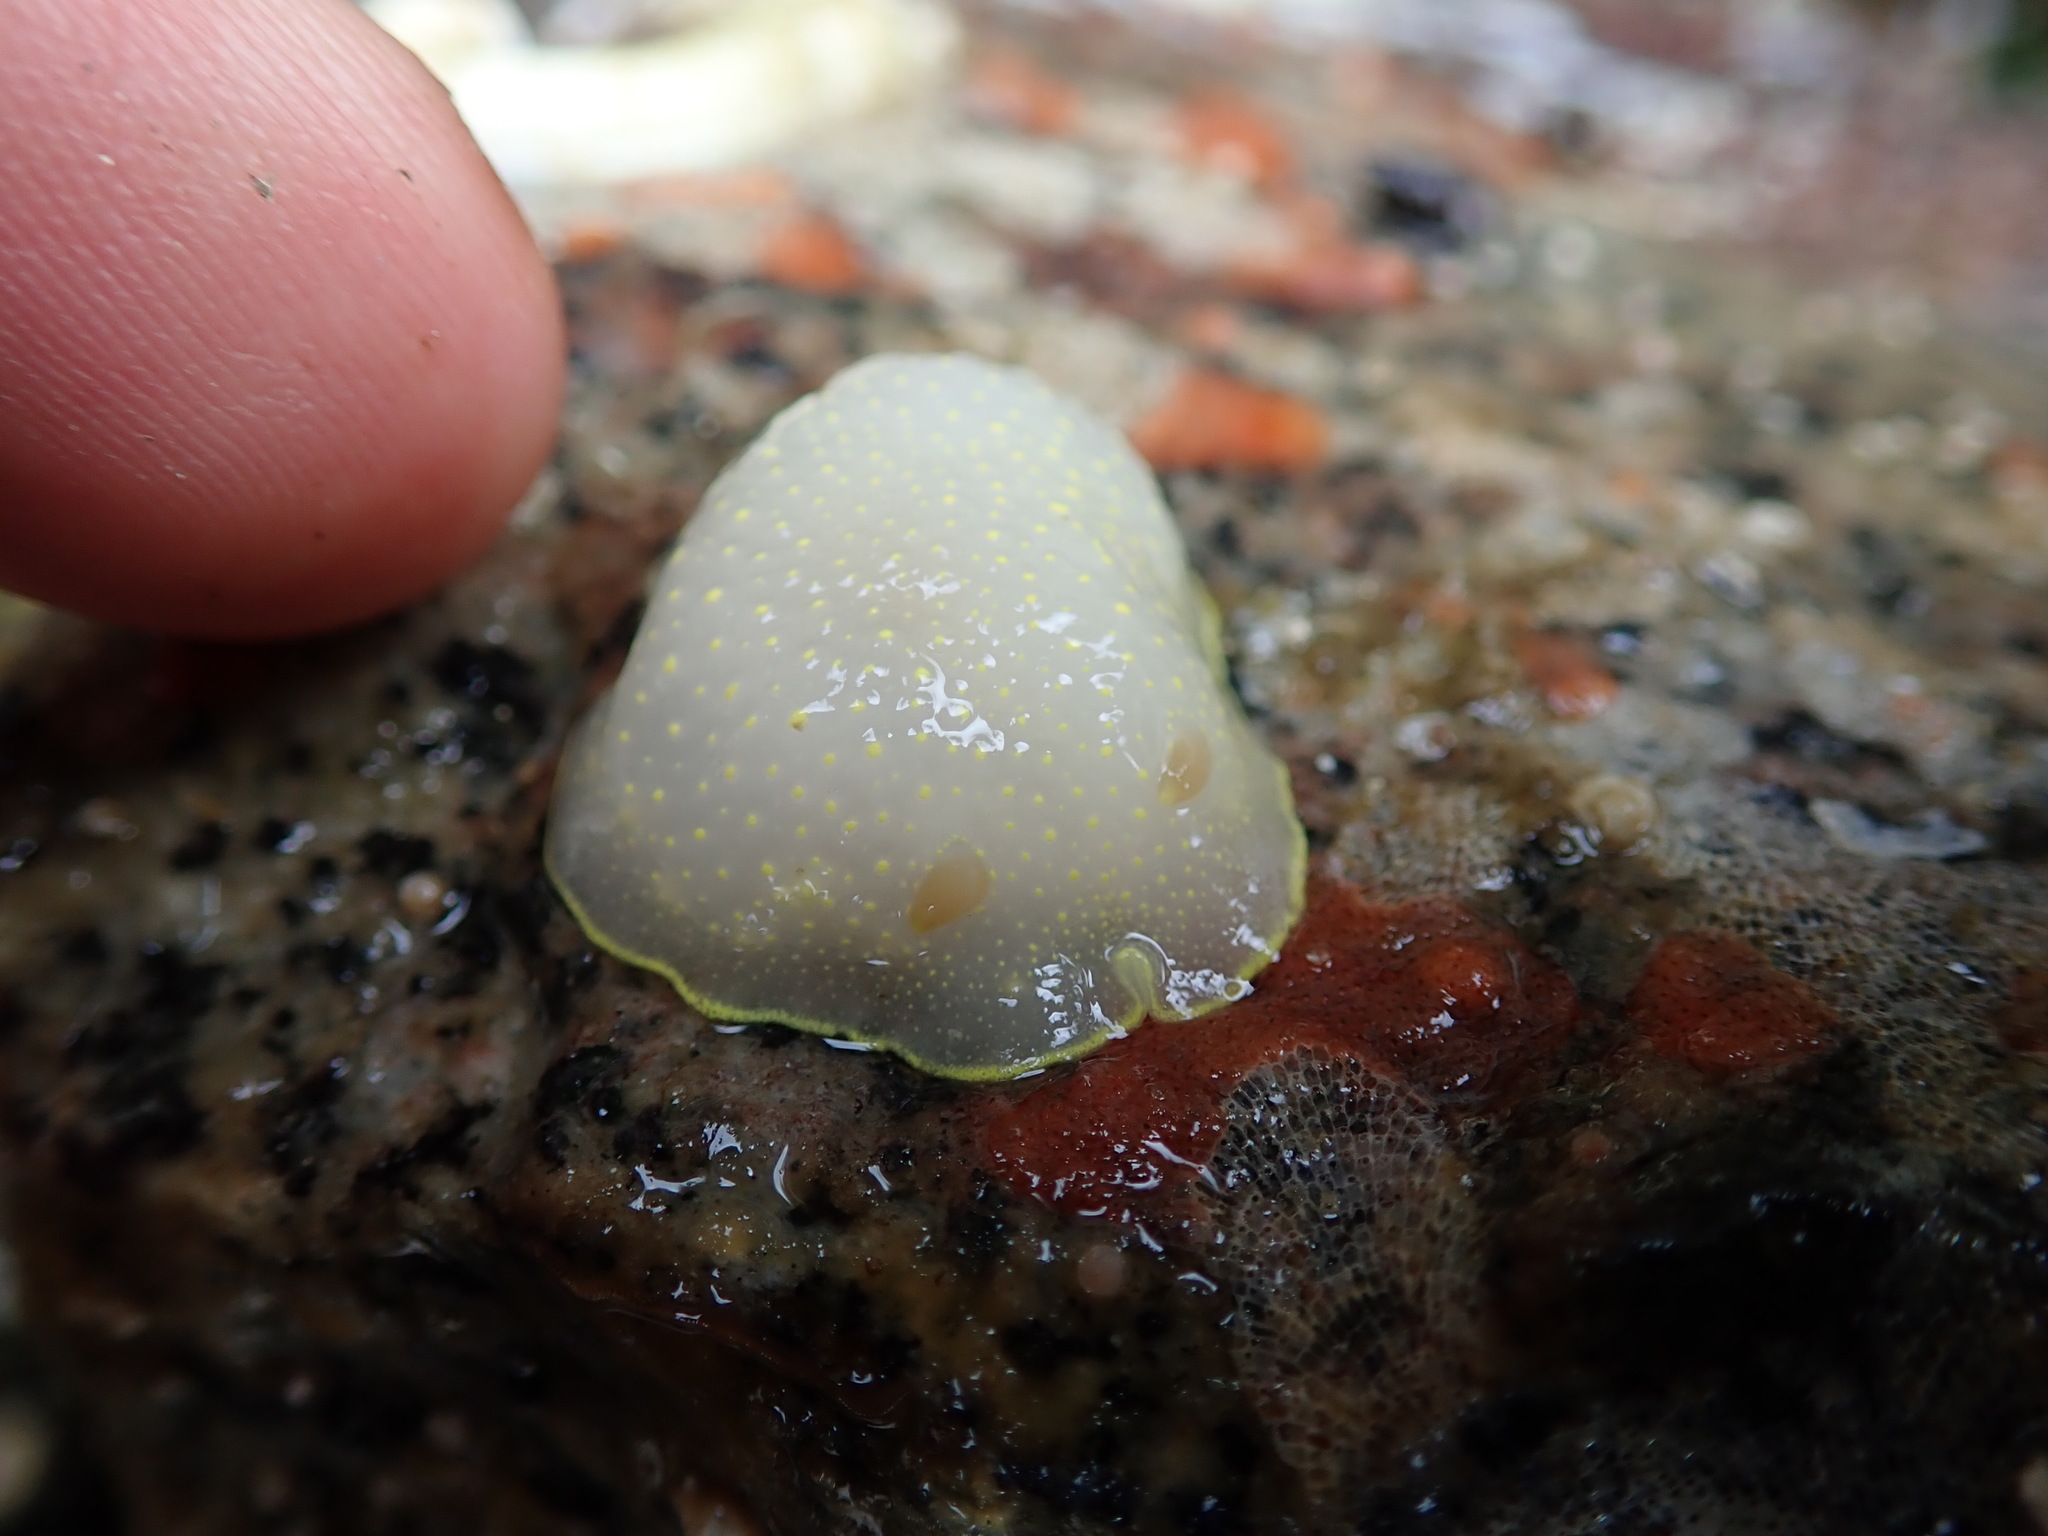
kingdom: Animalia
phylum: Mollusca
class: Gastropoda
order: Nudibranchia
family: Cadlinidae
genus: Cadlina
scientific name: Cadlina luteomarginata
